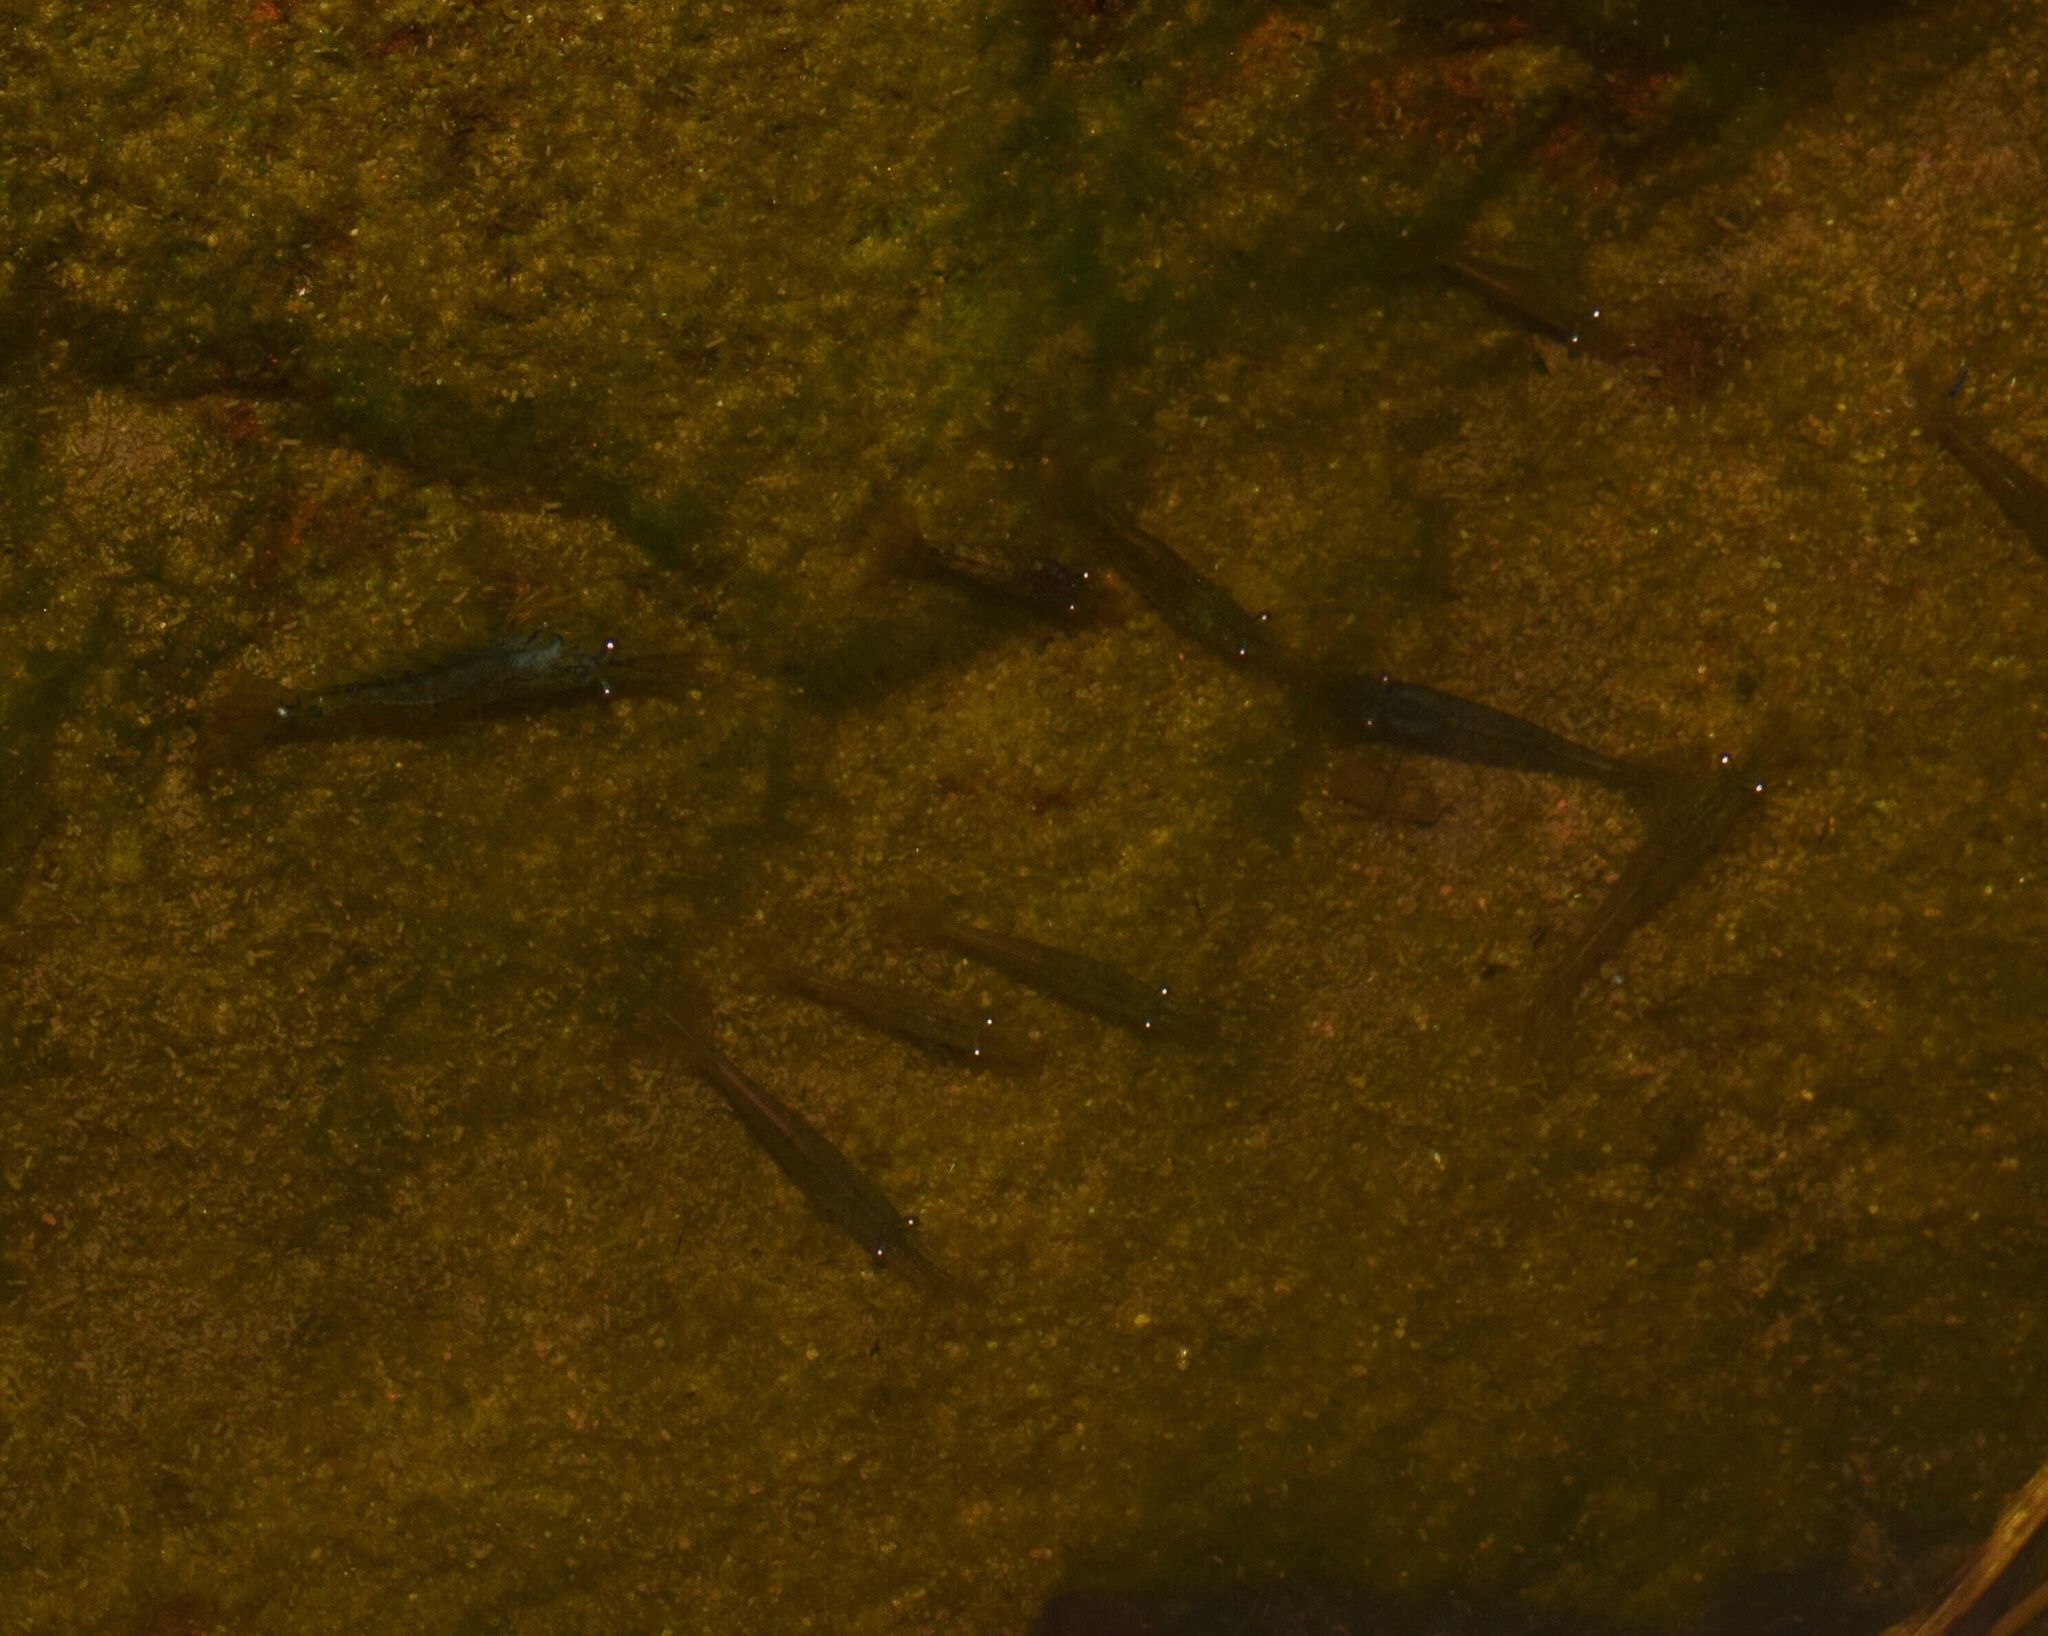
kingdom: Animalia
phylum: Arthropoda
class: Malacostraca
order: Decapoda
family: Atyidae
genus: Caridina
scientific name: Caridina africana
